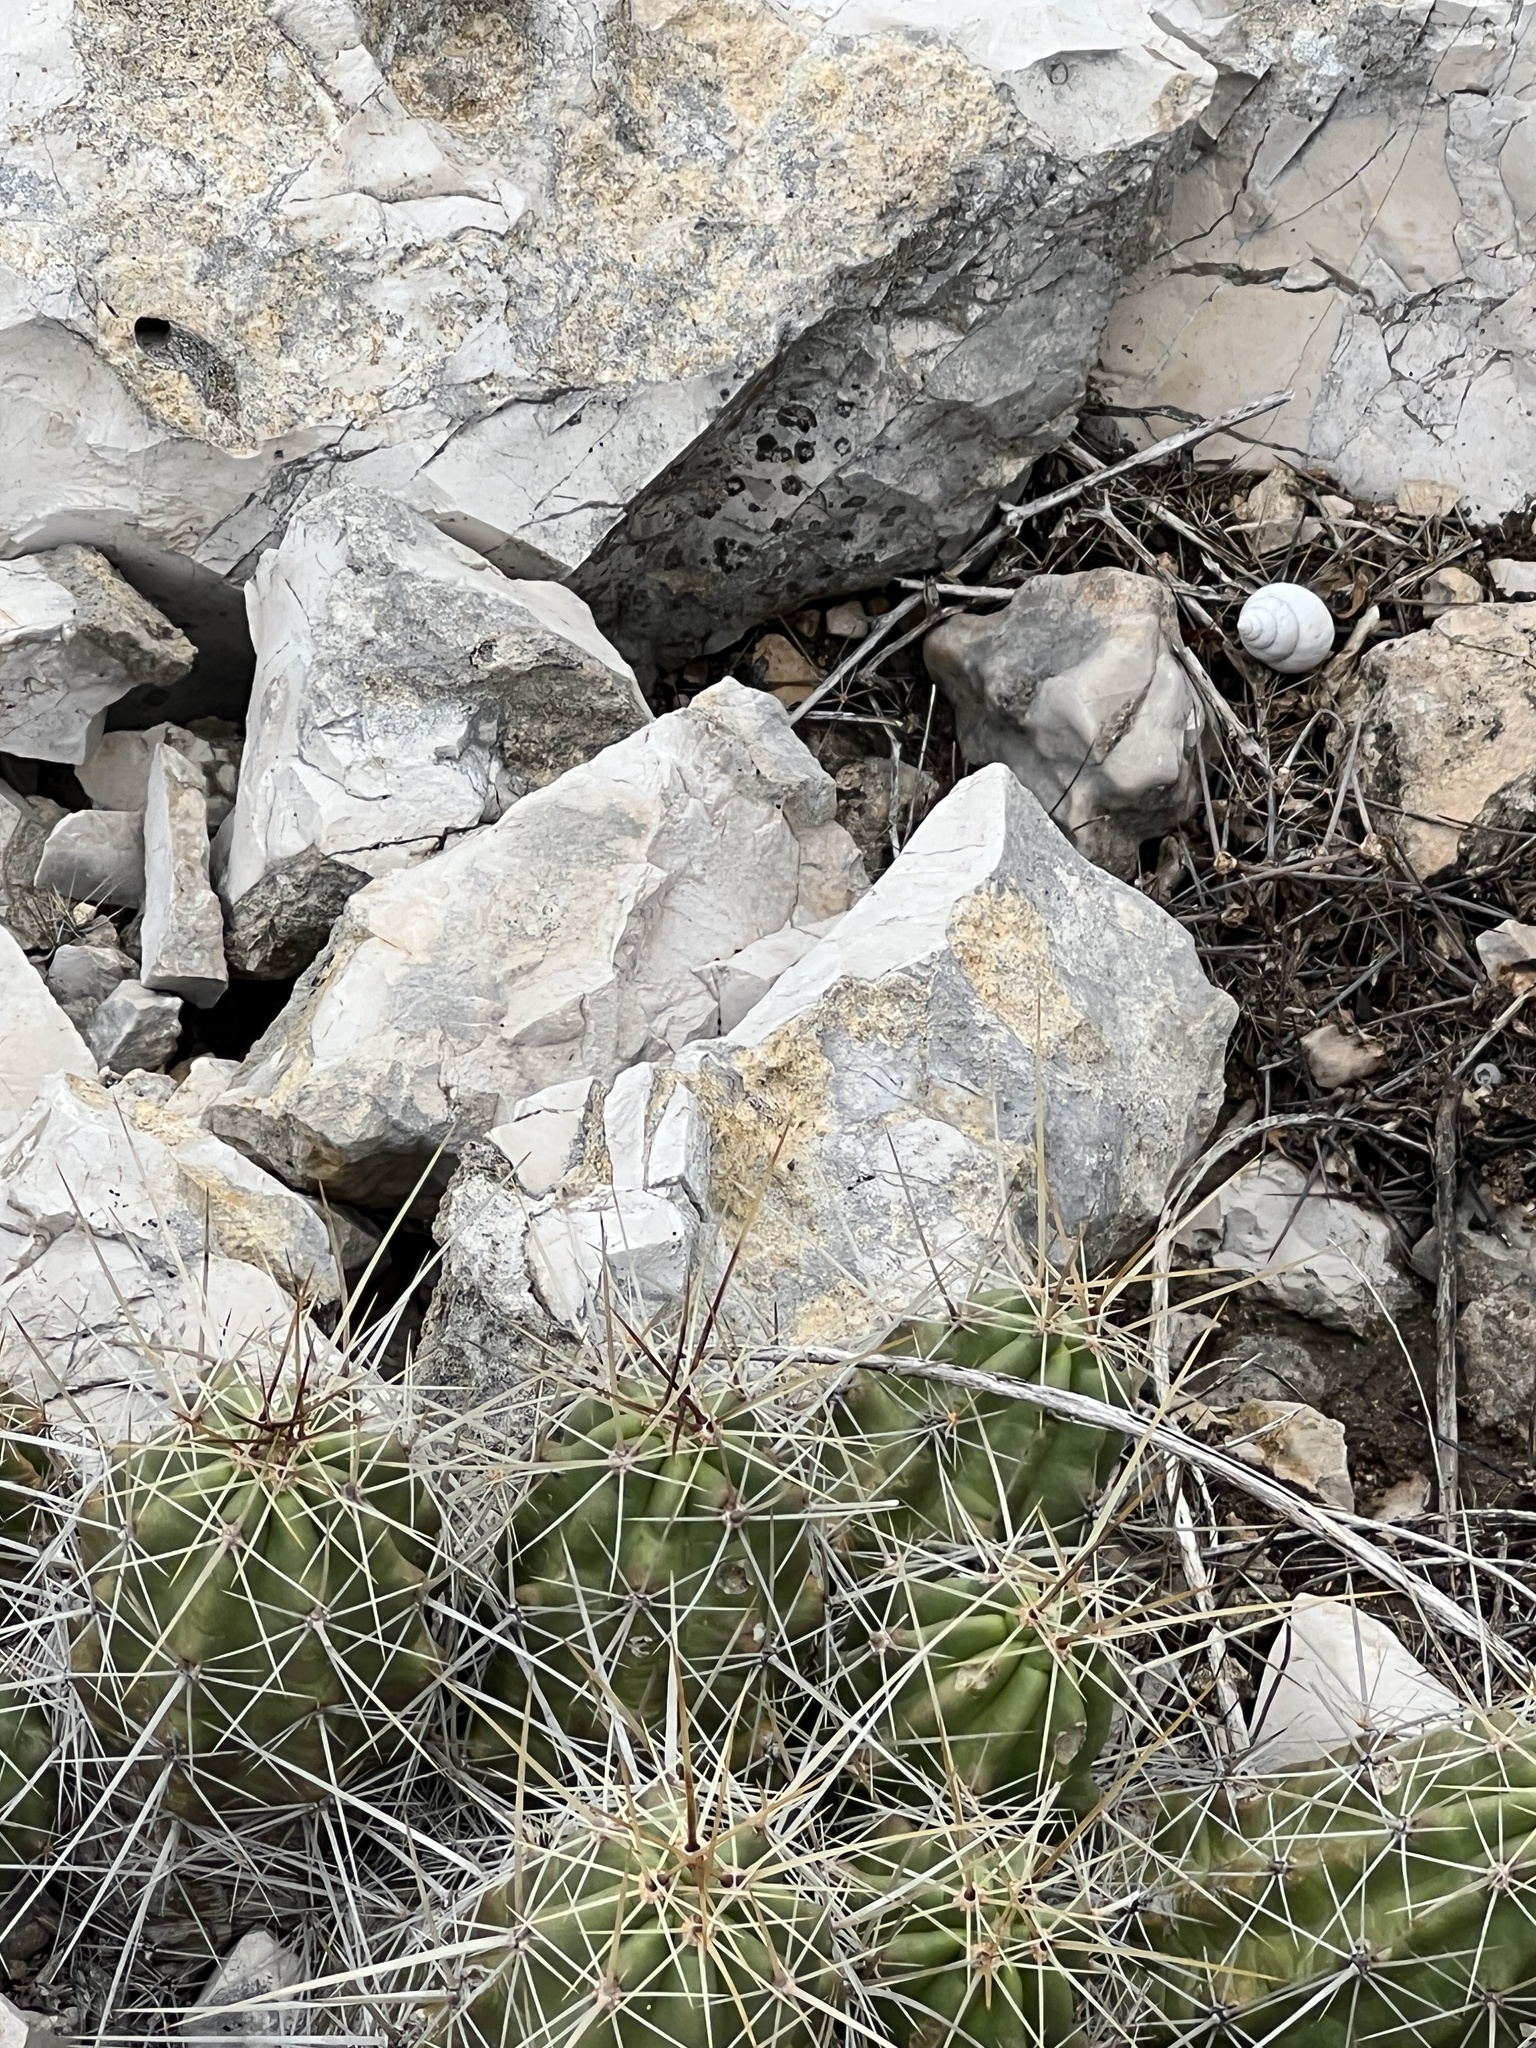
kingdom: Plantae
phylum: Tracheophyta
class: Magnoliopsida
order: Caryophyllales
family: Cactaceae
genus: Echinocereus
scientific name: Echinocereus enneacanthus
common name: Pitaya
